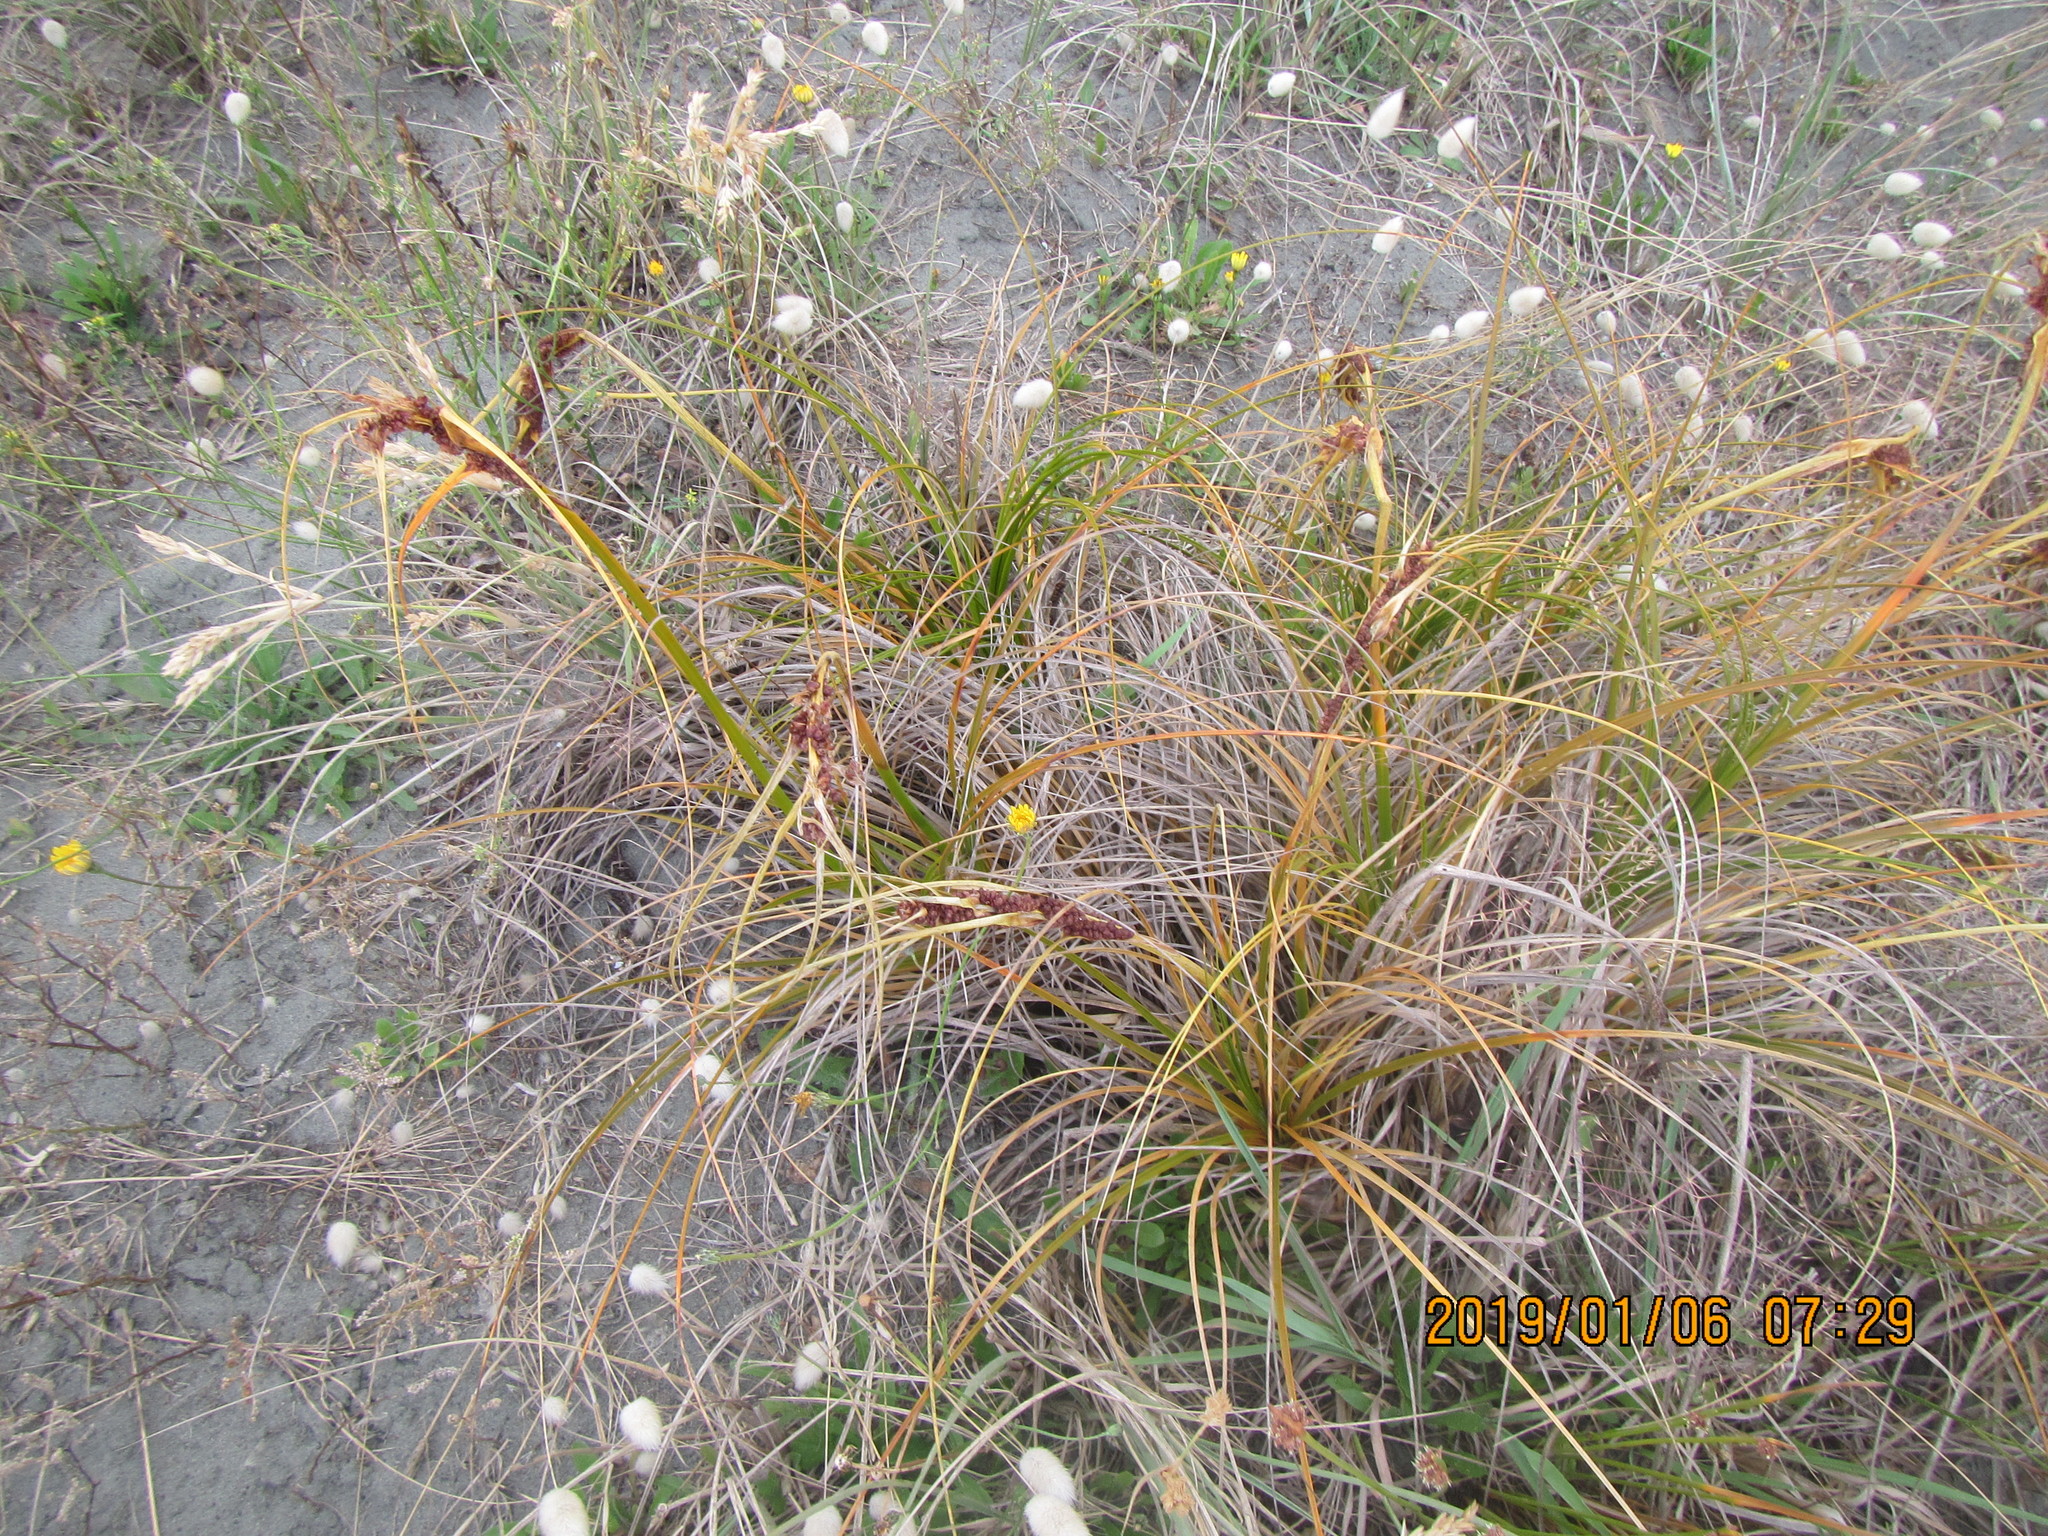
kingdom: Plantae
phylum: Tracheophyta
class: Liliopsida
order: Poales
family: Cyperaceae
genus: Ficinia
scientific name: Ficinia spiralis
